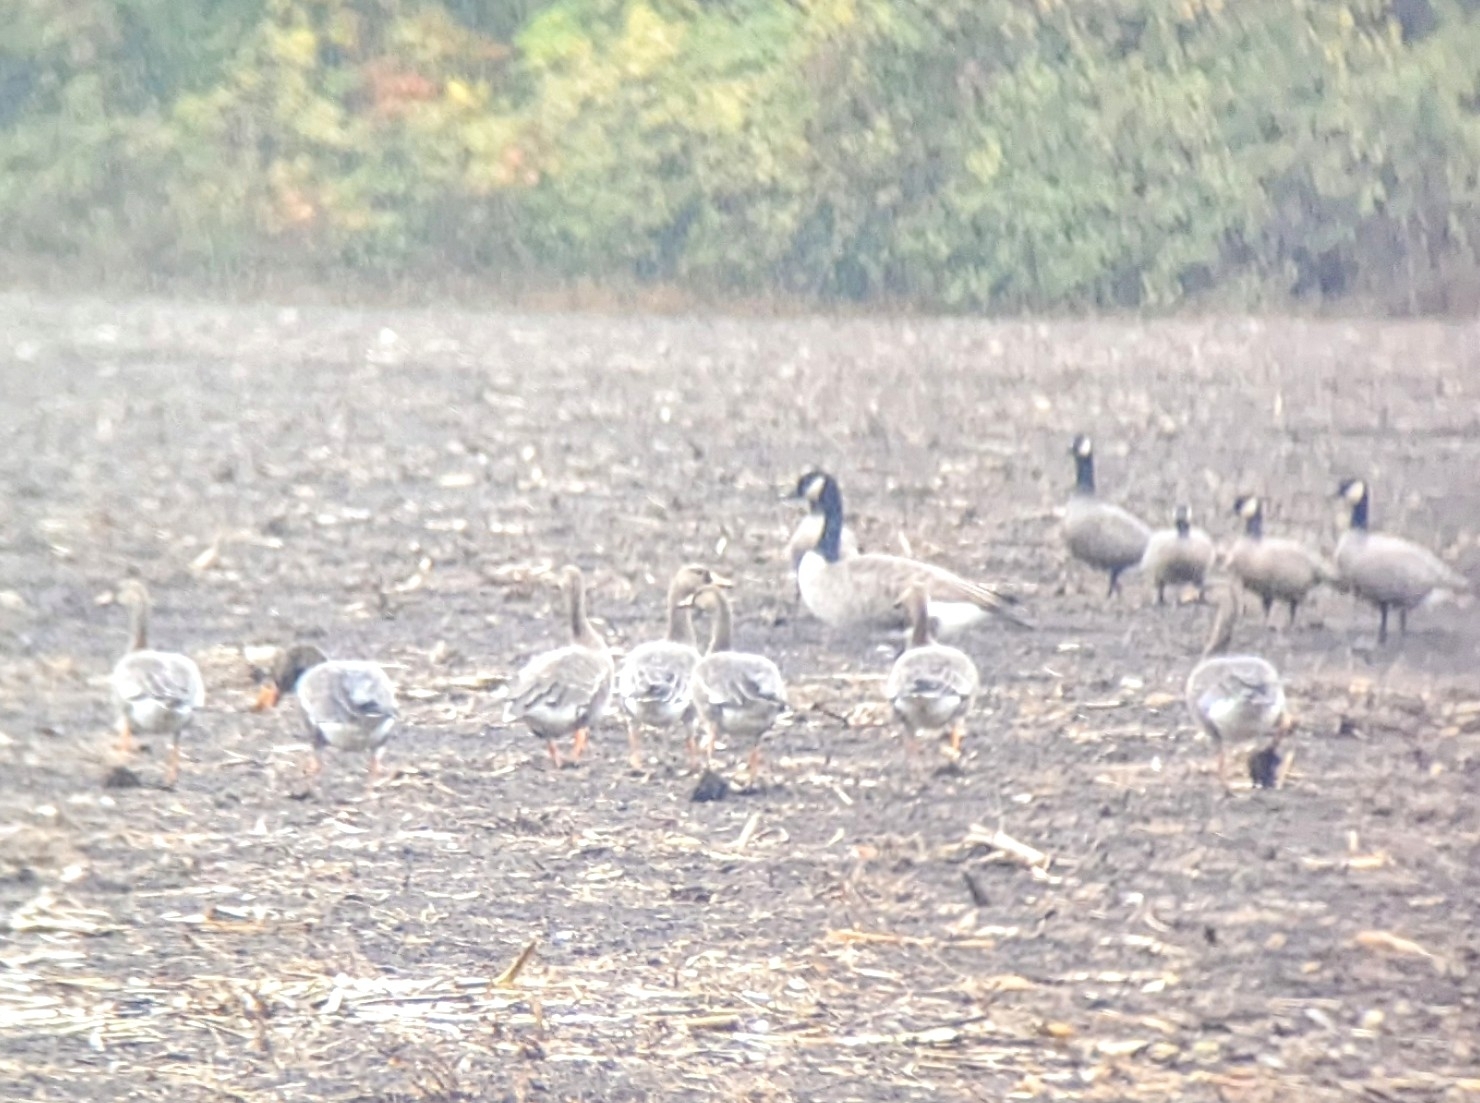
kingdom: Animalia
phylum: Chordata
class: Aves
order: Anseriformes
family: Anatidae
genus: Anser
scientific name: Anser albifrons
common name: Greater white-fronted goose
